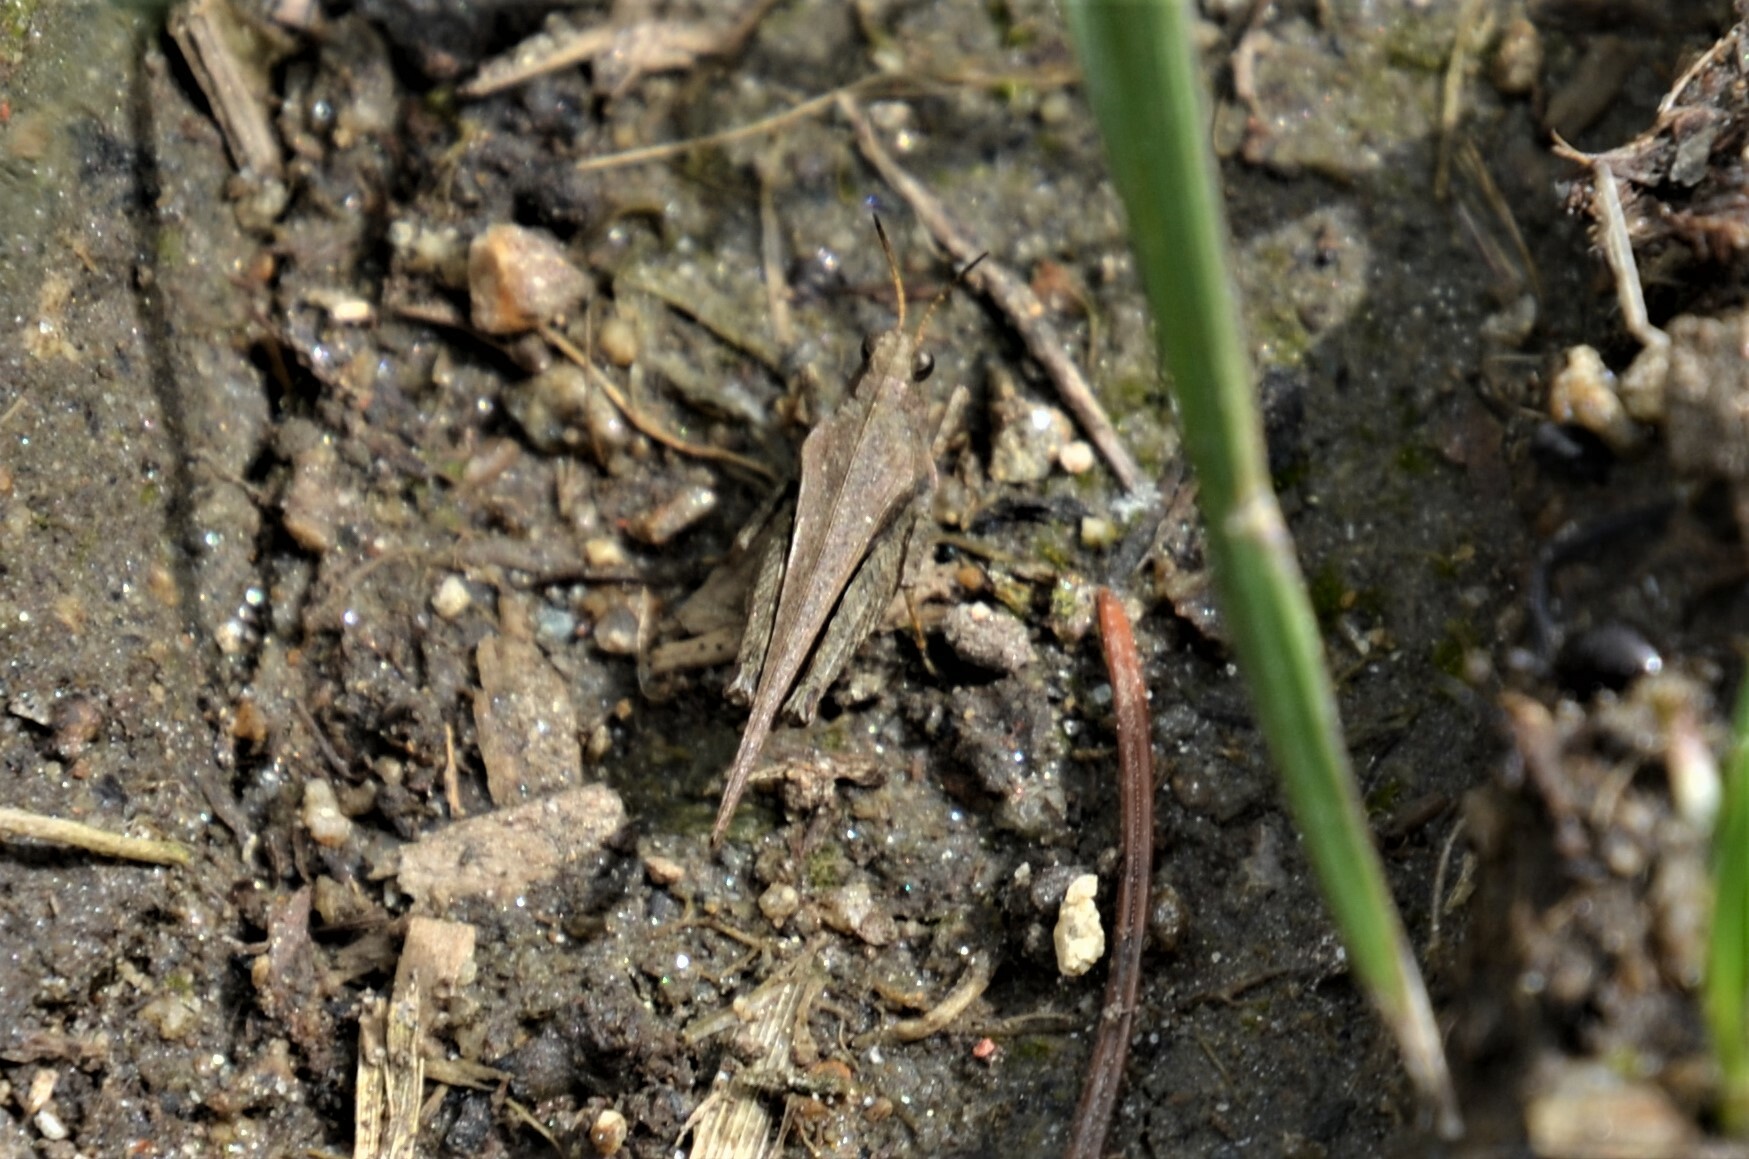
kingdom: Animalia
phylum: Arthropoda
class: Insecta
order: Orthoptera
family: Tetrigidae
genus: Tetrix
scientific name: Tetrix subulata
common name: Slender ground-hopper
